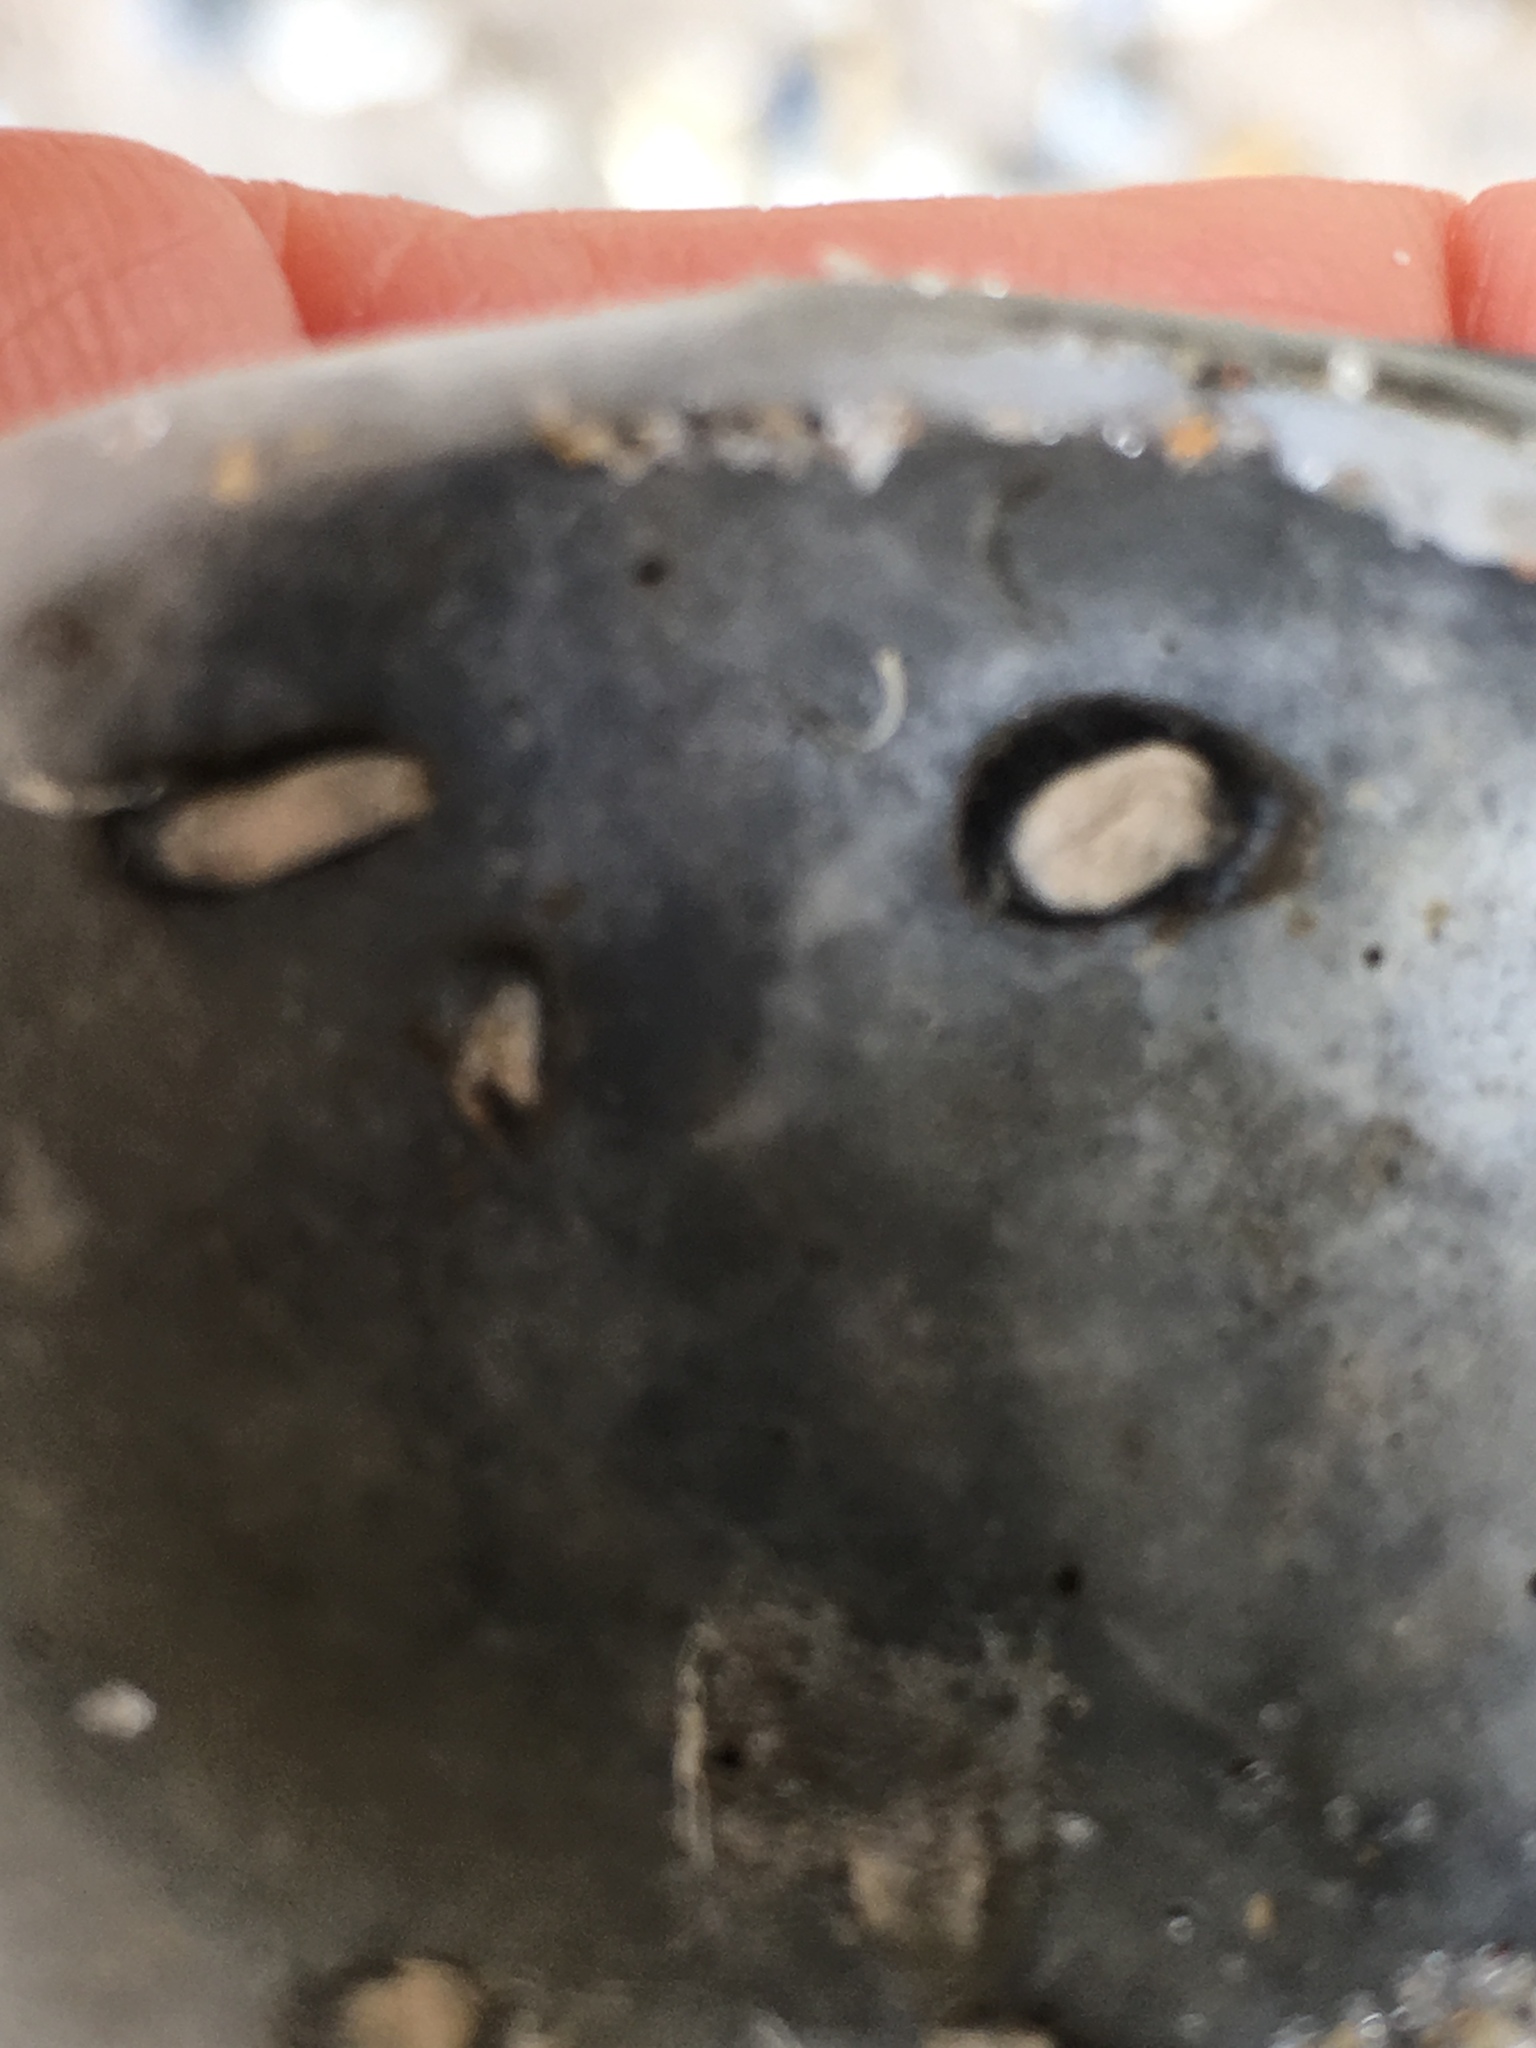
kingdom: Animalia
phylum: Mollusca
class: Bivalvia
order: Gastrochaenida
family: Gastrochaenidae
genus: Rocellaria
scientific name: Rocellaria stimpsonii
